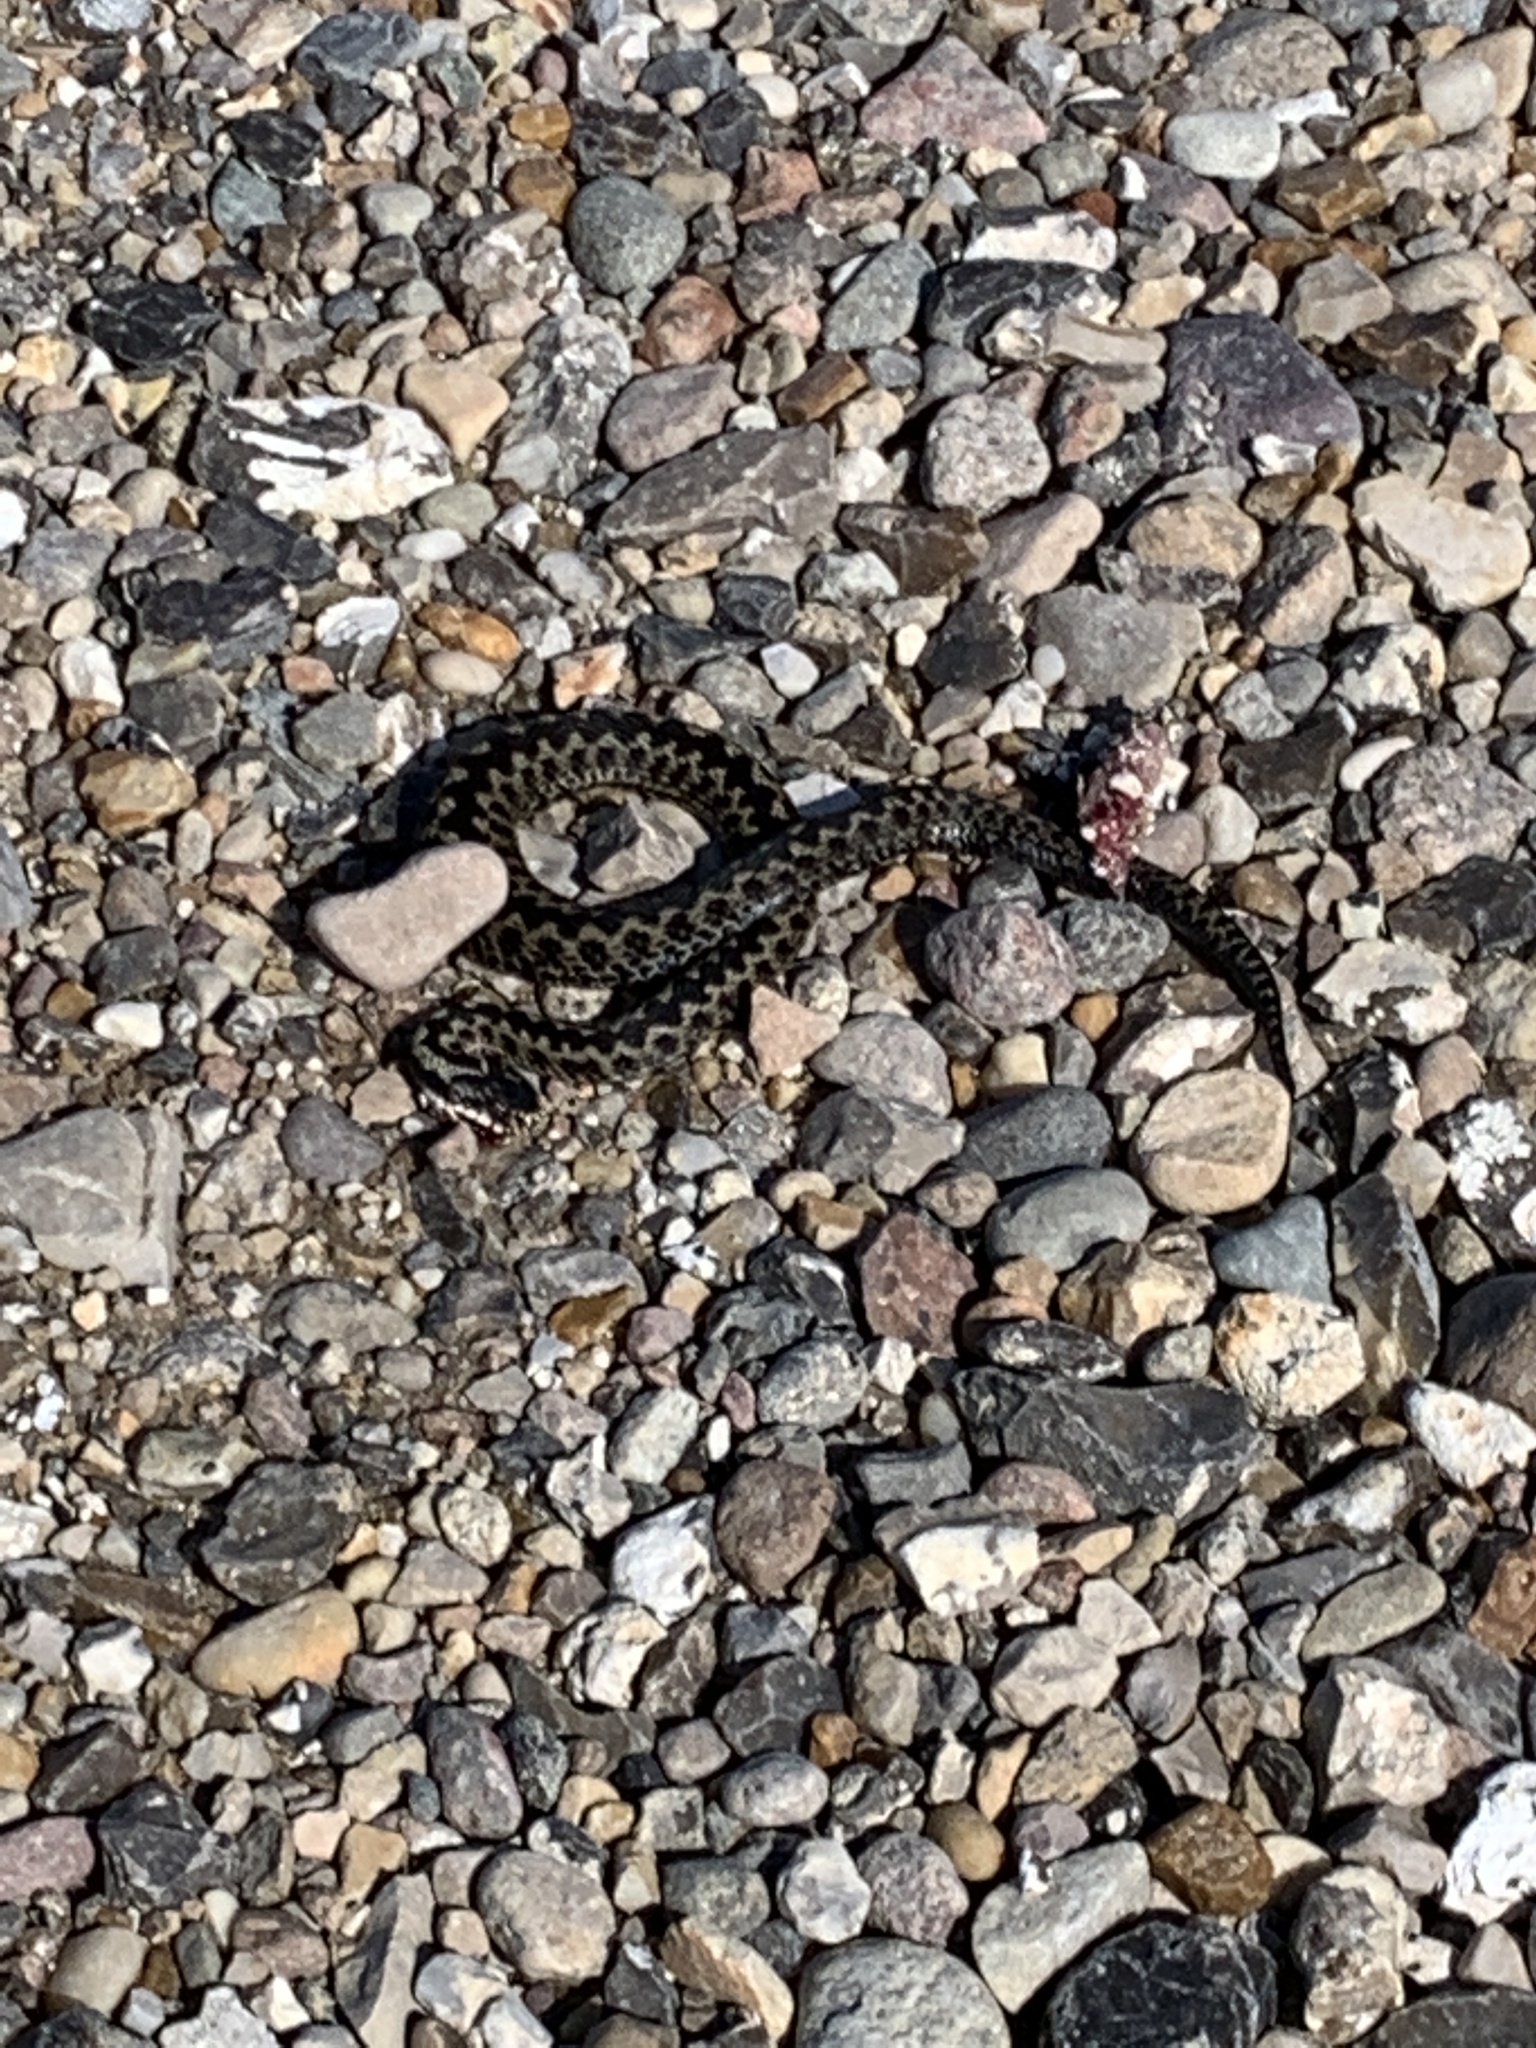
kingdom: Animalia
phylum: Chordata
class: Squamata
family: Viperidae
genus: Vipera
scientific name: Vipera berus
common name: Adder
